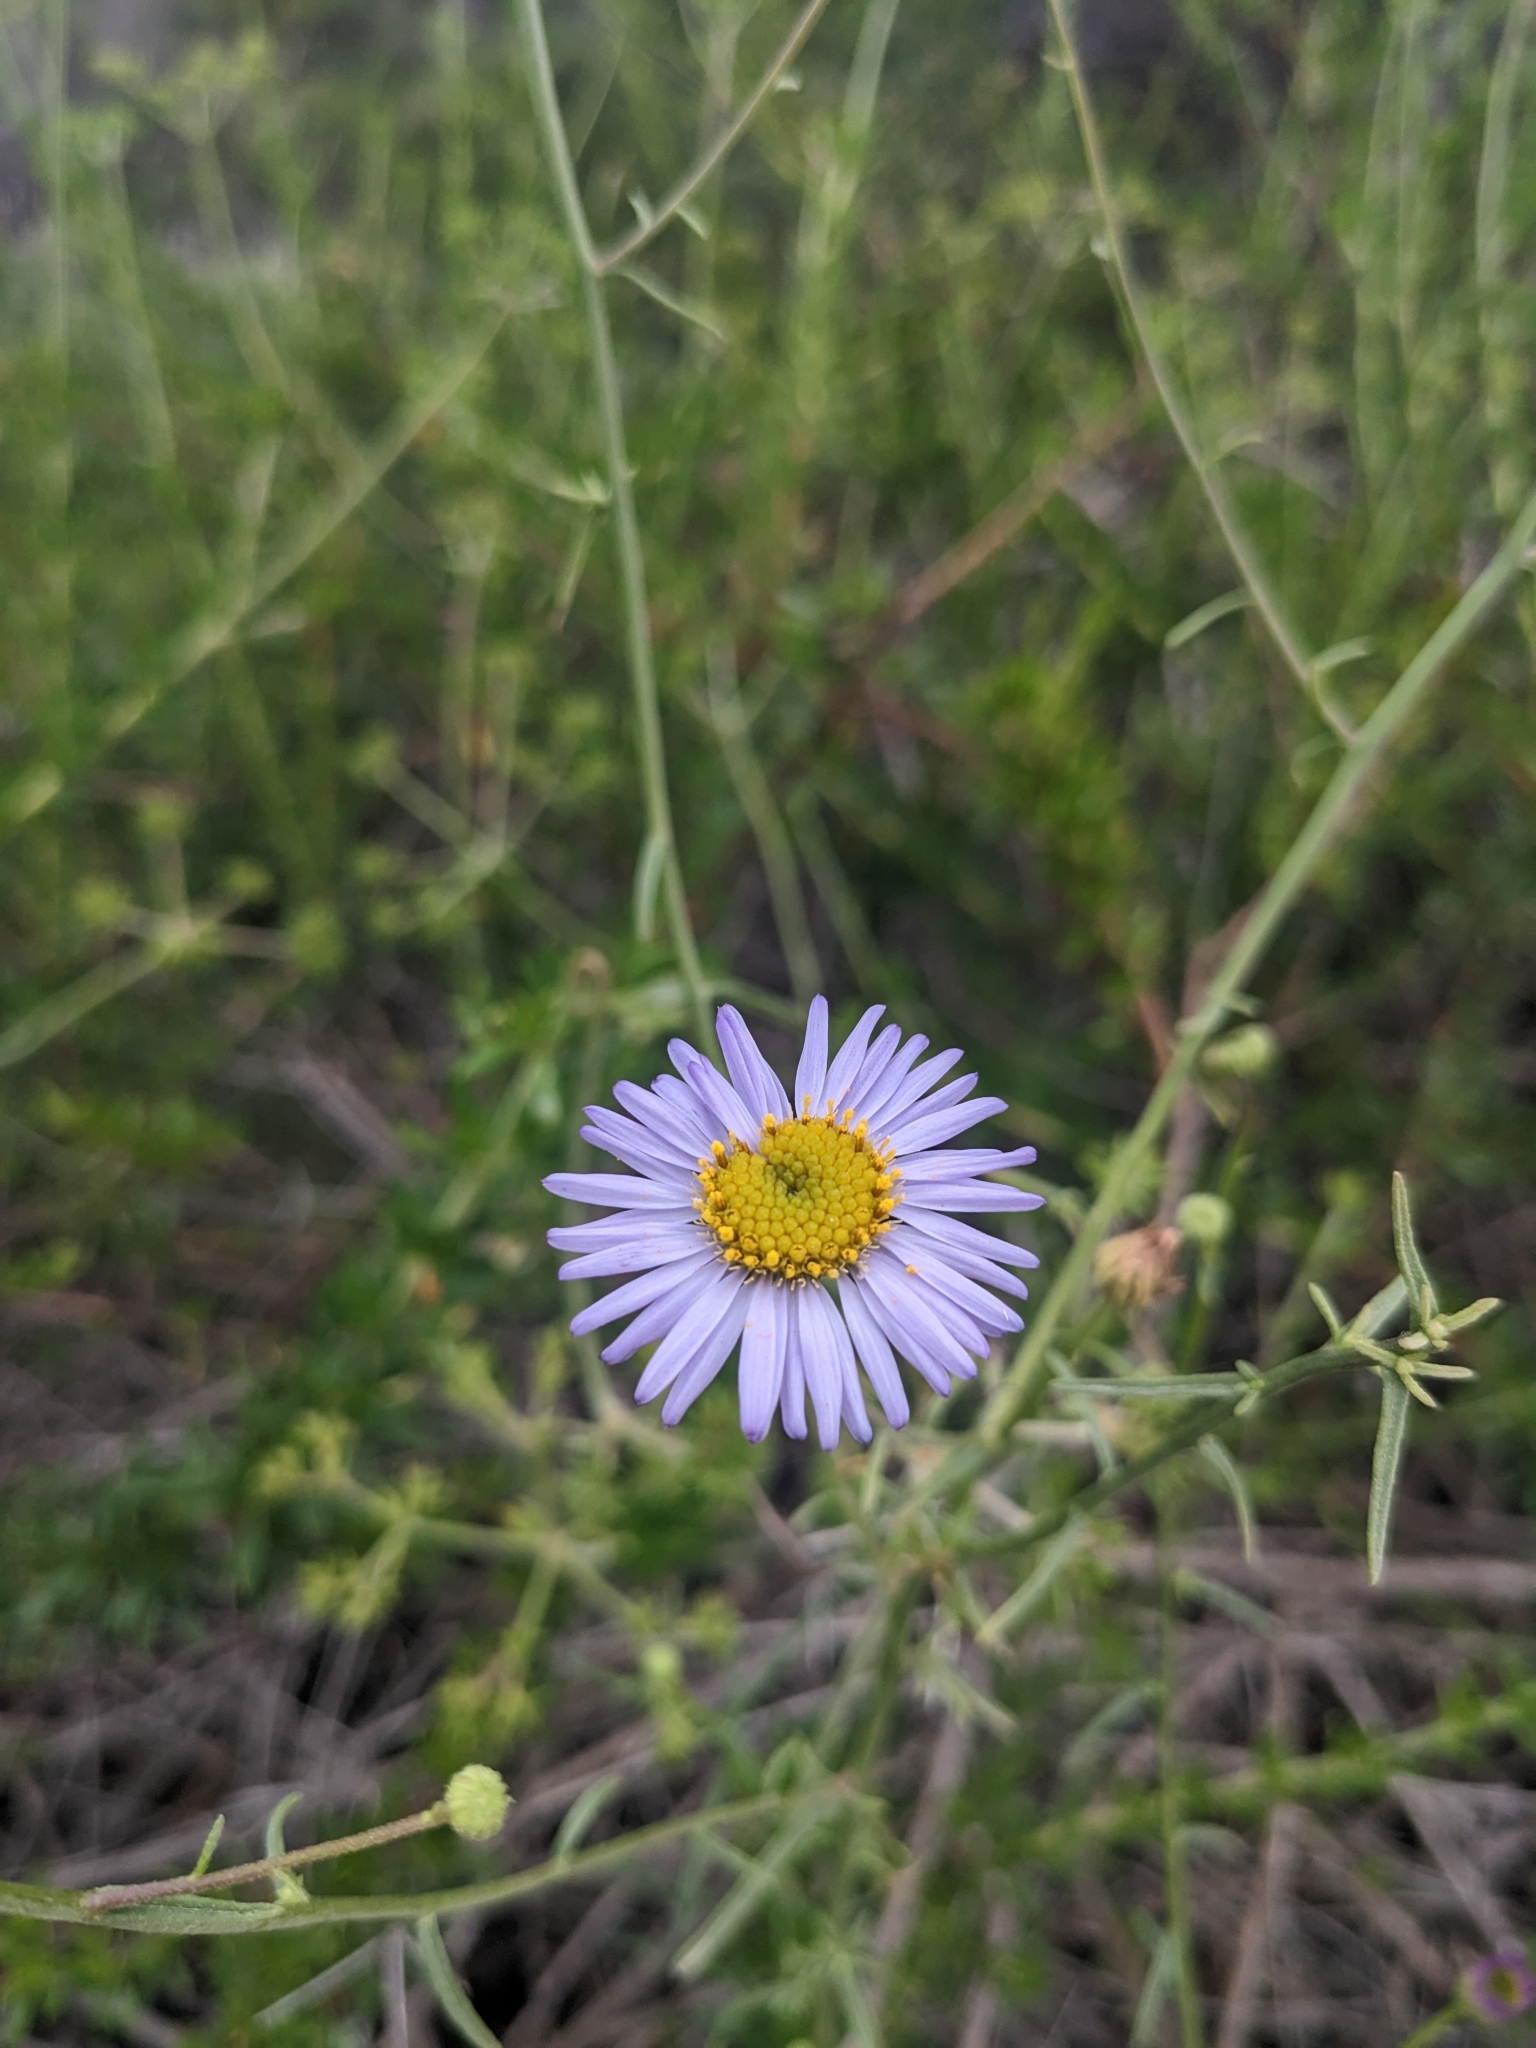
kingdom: Plantae
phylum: Tracheophyta
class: Magnoliopsida
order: Asterales
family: Asteraceae
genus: Erigeron
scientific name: Erigeron foliosus
